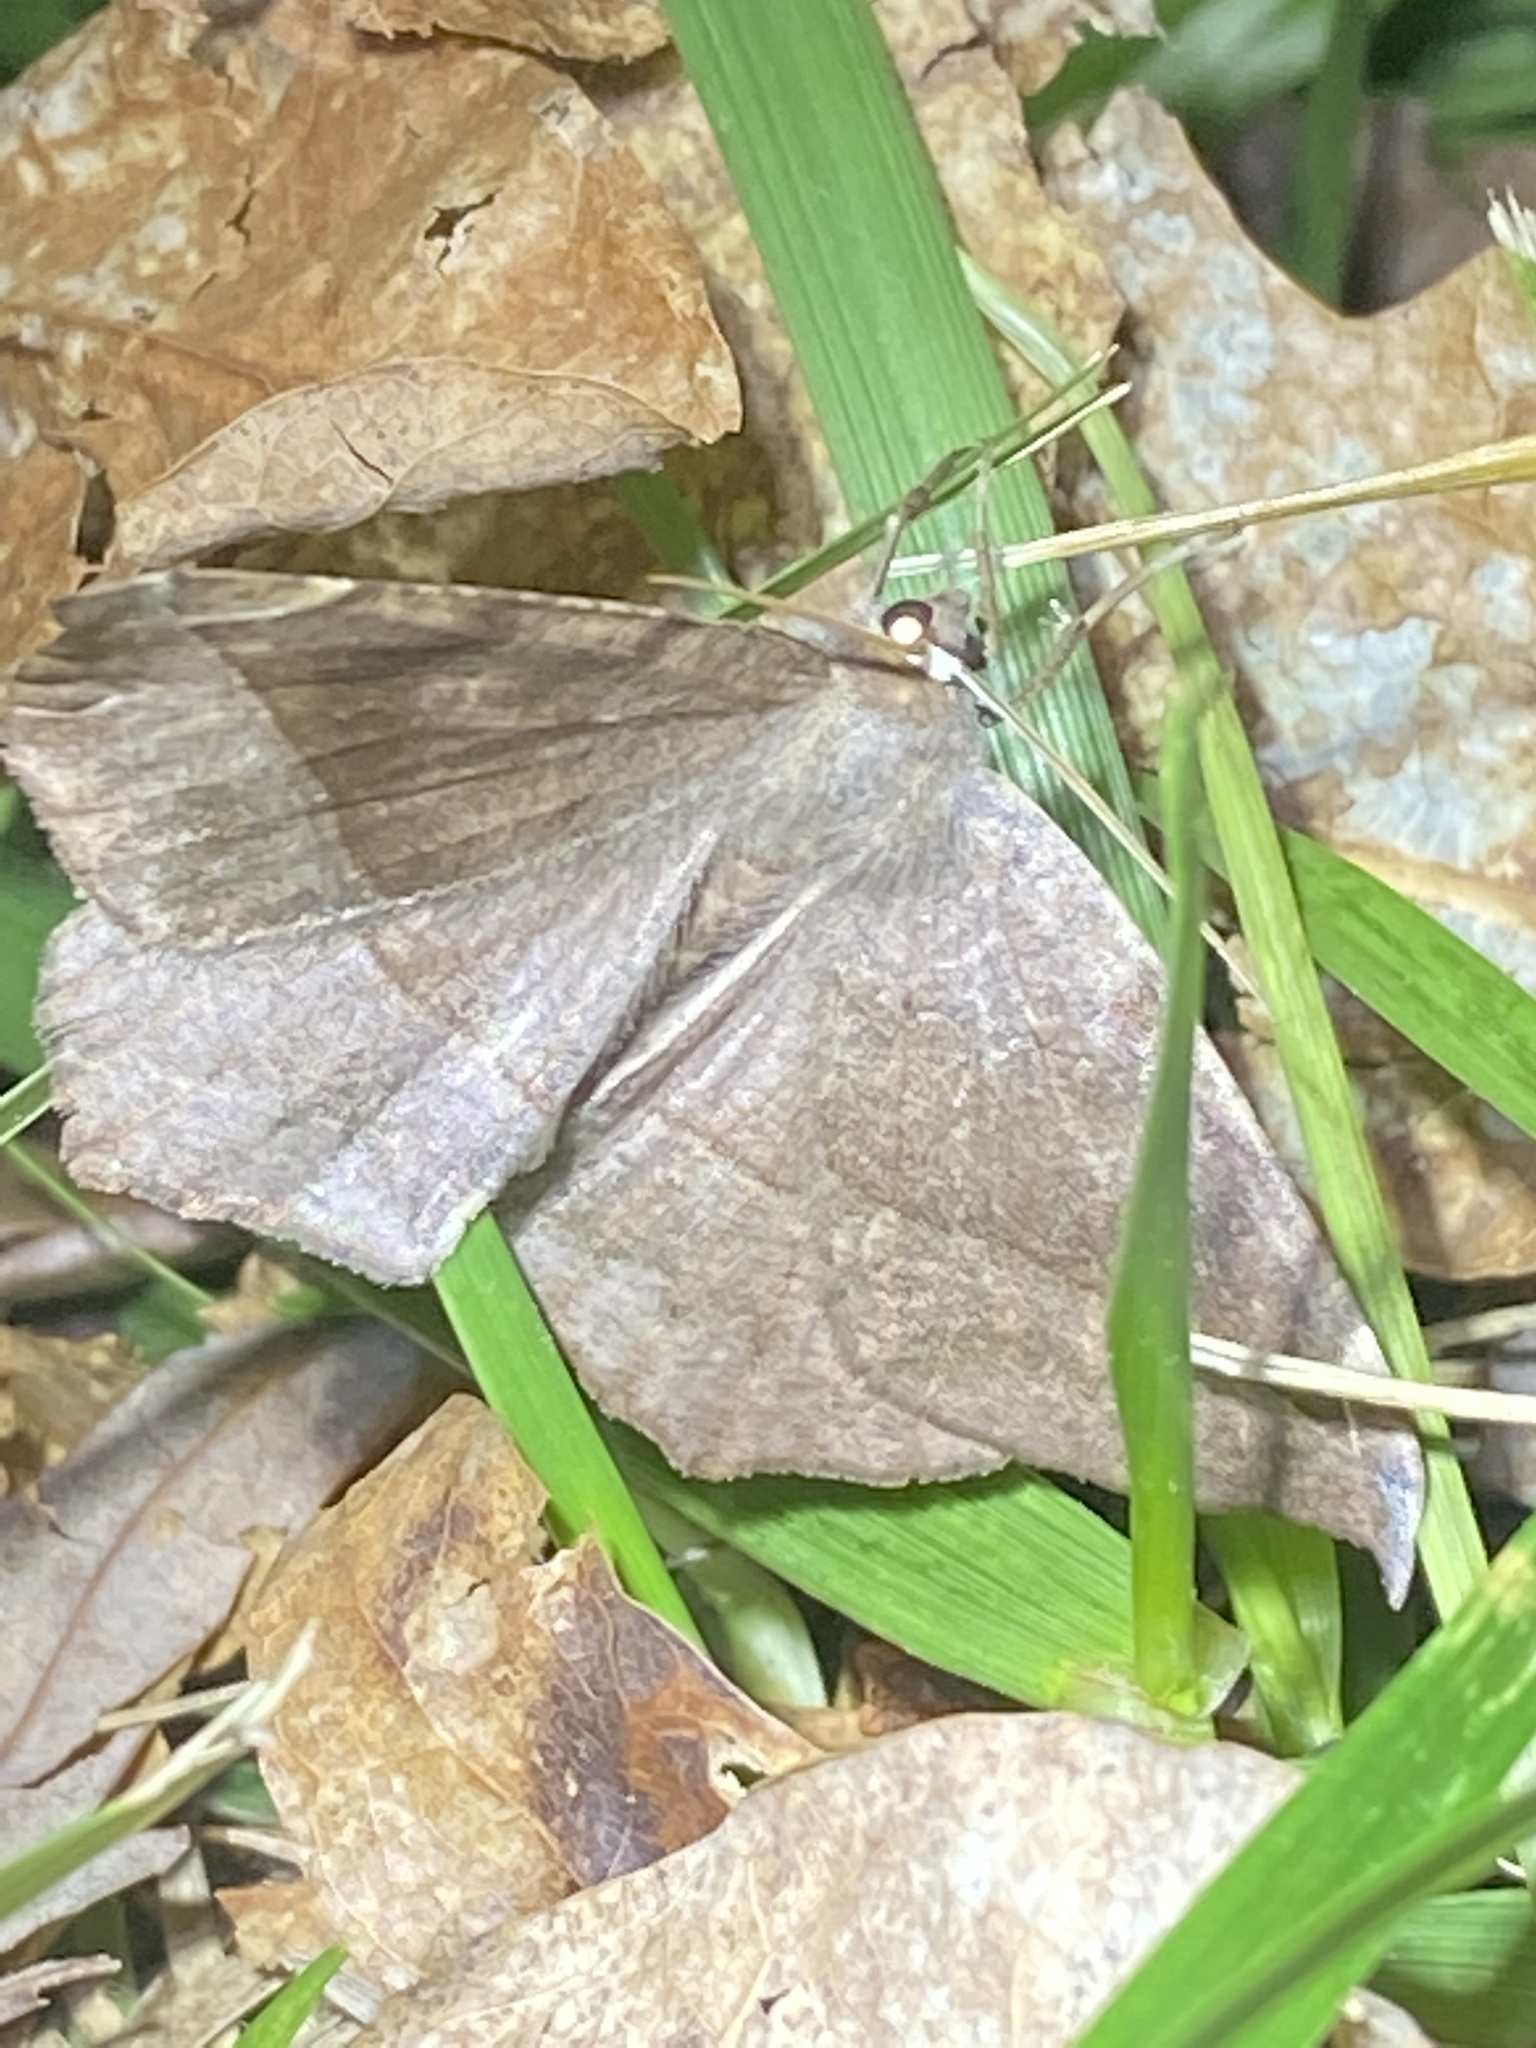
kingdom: Animalia
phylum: Arthropoda
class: Insecta
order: Lepidoptera
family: Geometridae
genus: Eutrapela
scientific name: Eutrapela clemataria
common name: Curved-toothed geometer
